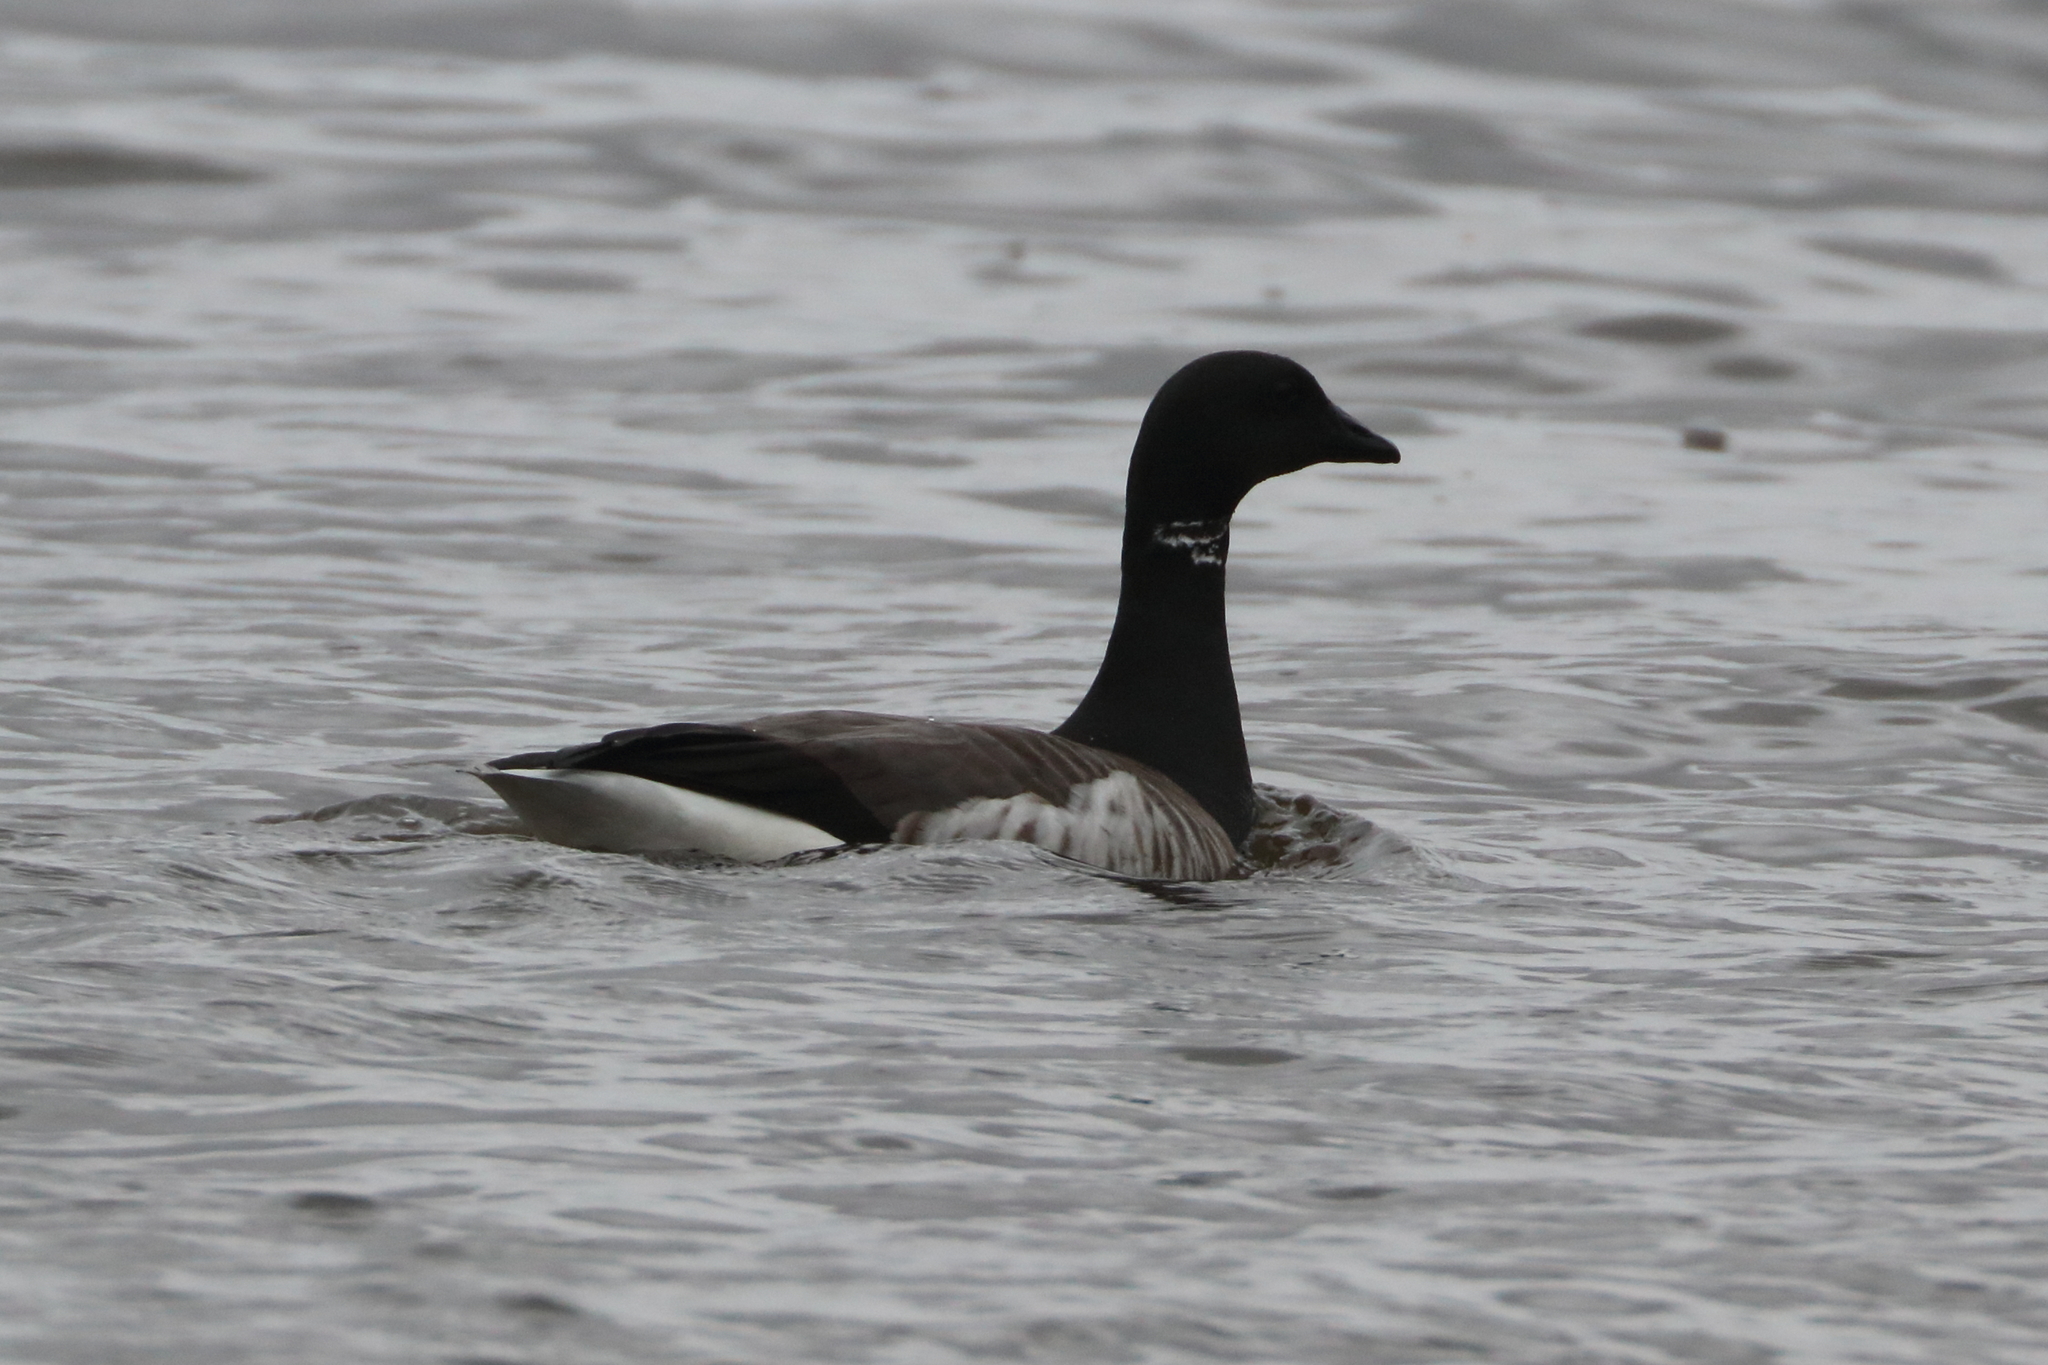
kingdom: Animalia
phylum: Chordata
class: Aves
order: Anseriformes
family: Anatidae
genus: Branta
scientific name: Branta bernicla
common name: Brant goose
